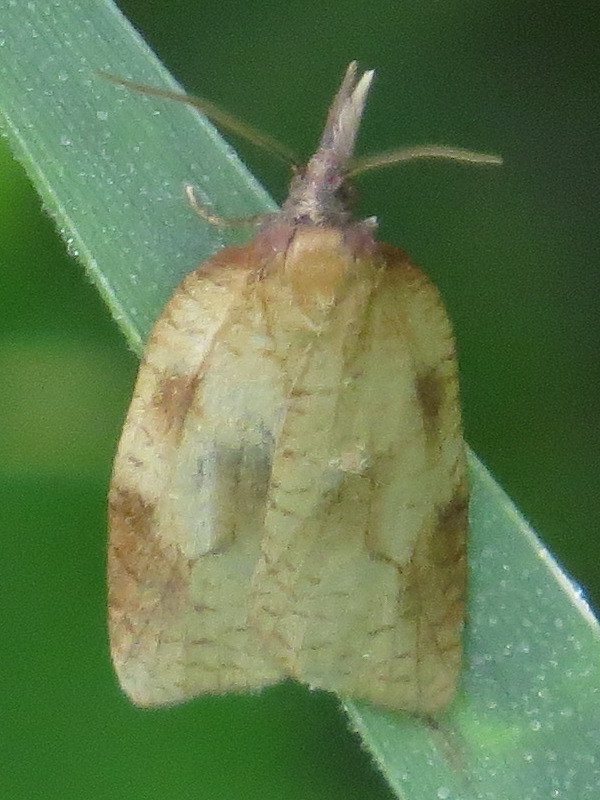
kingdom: Animalia
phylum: Arthropoda
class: Insecta
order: Lepidoptera
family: Tortricidae
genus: Sparganothis
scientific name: Sparganothis xanthoides
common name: Mosaic sparganothis moth
